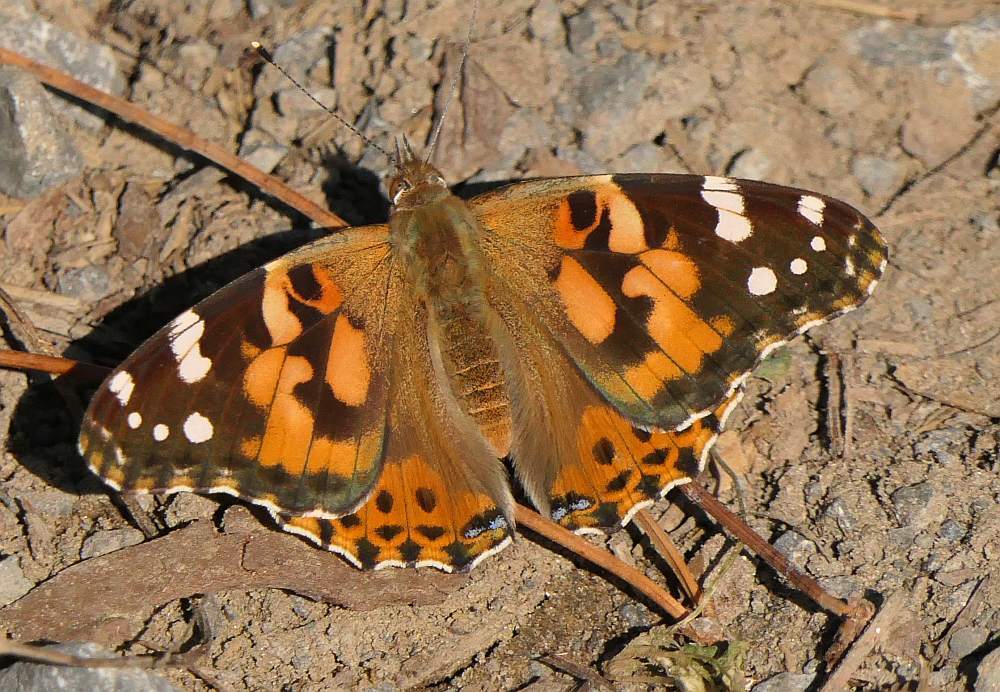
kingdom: Animalia
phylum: Arthropoda
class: Insecta
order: Lepidoptera
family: Nymphalidae
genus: Vanessa
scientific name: Vanessa cardui
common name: Painted lady
